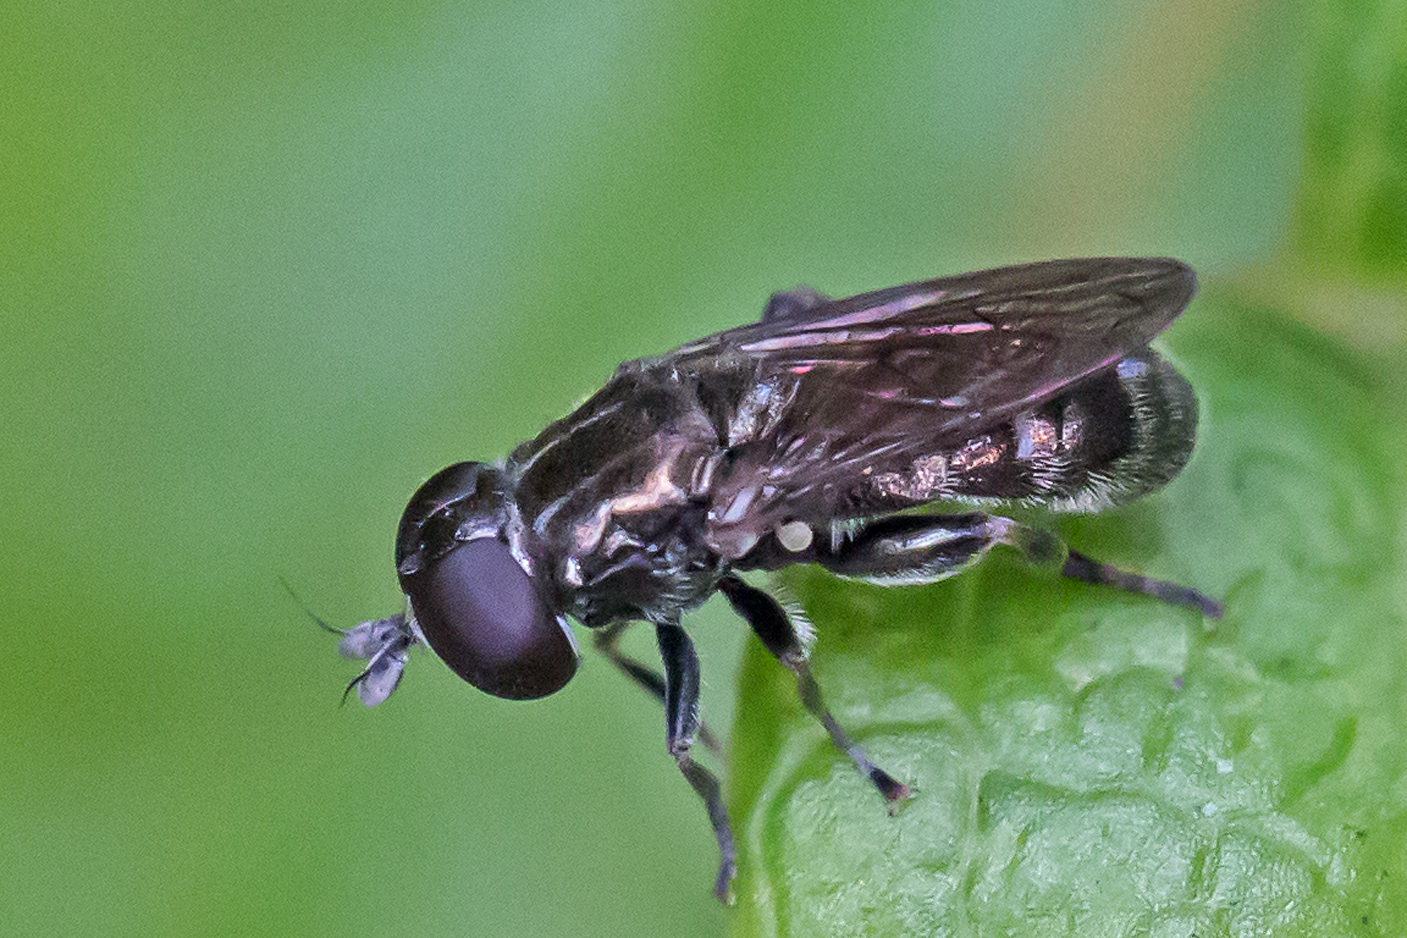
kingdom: Animalia
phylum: Arthropoda
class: Insecta
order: Diptera
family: Syrphidae
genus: Eumerus
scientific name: Eumerus
